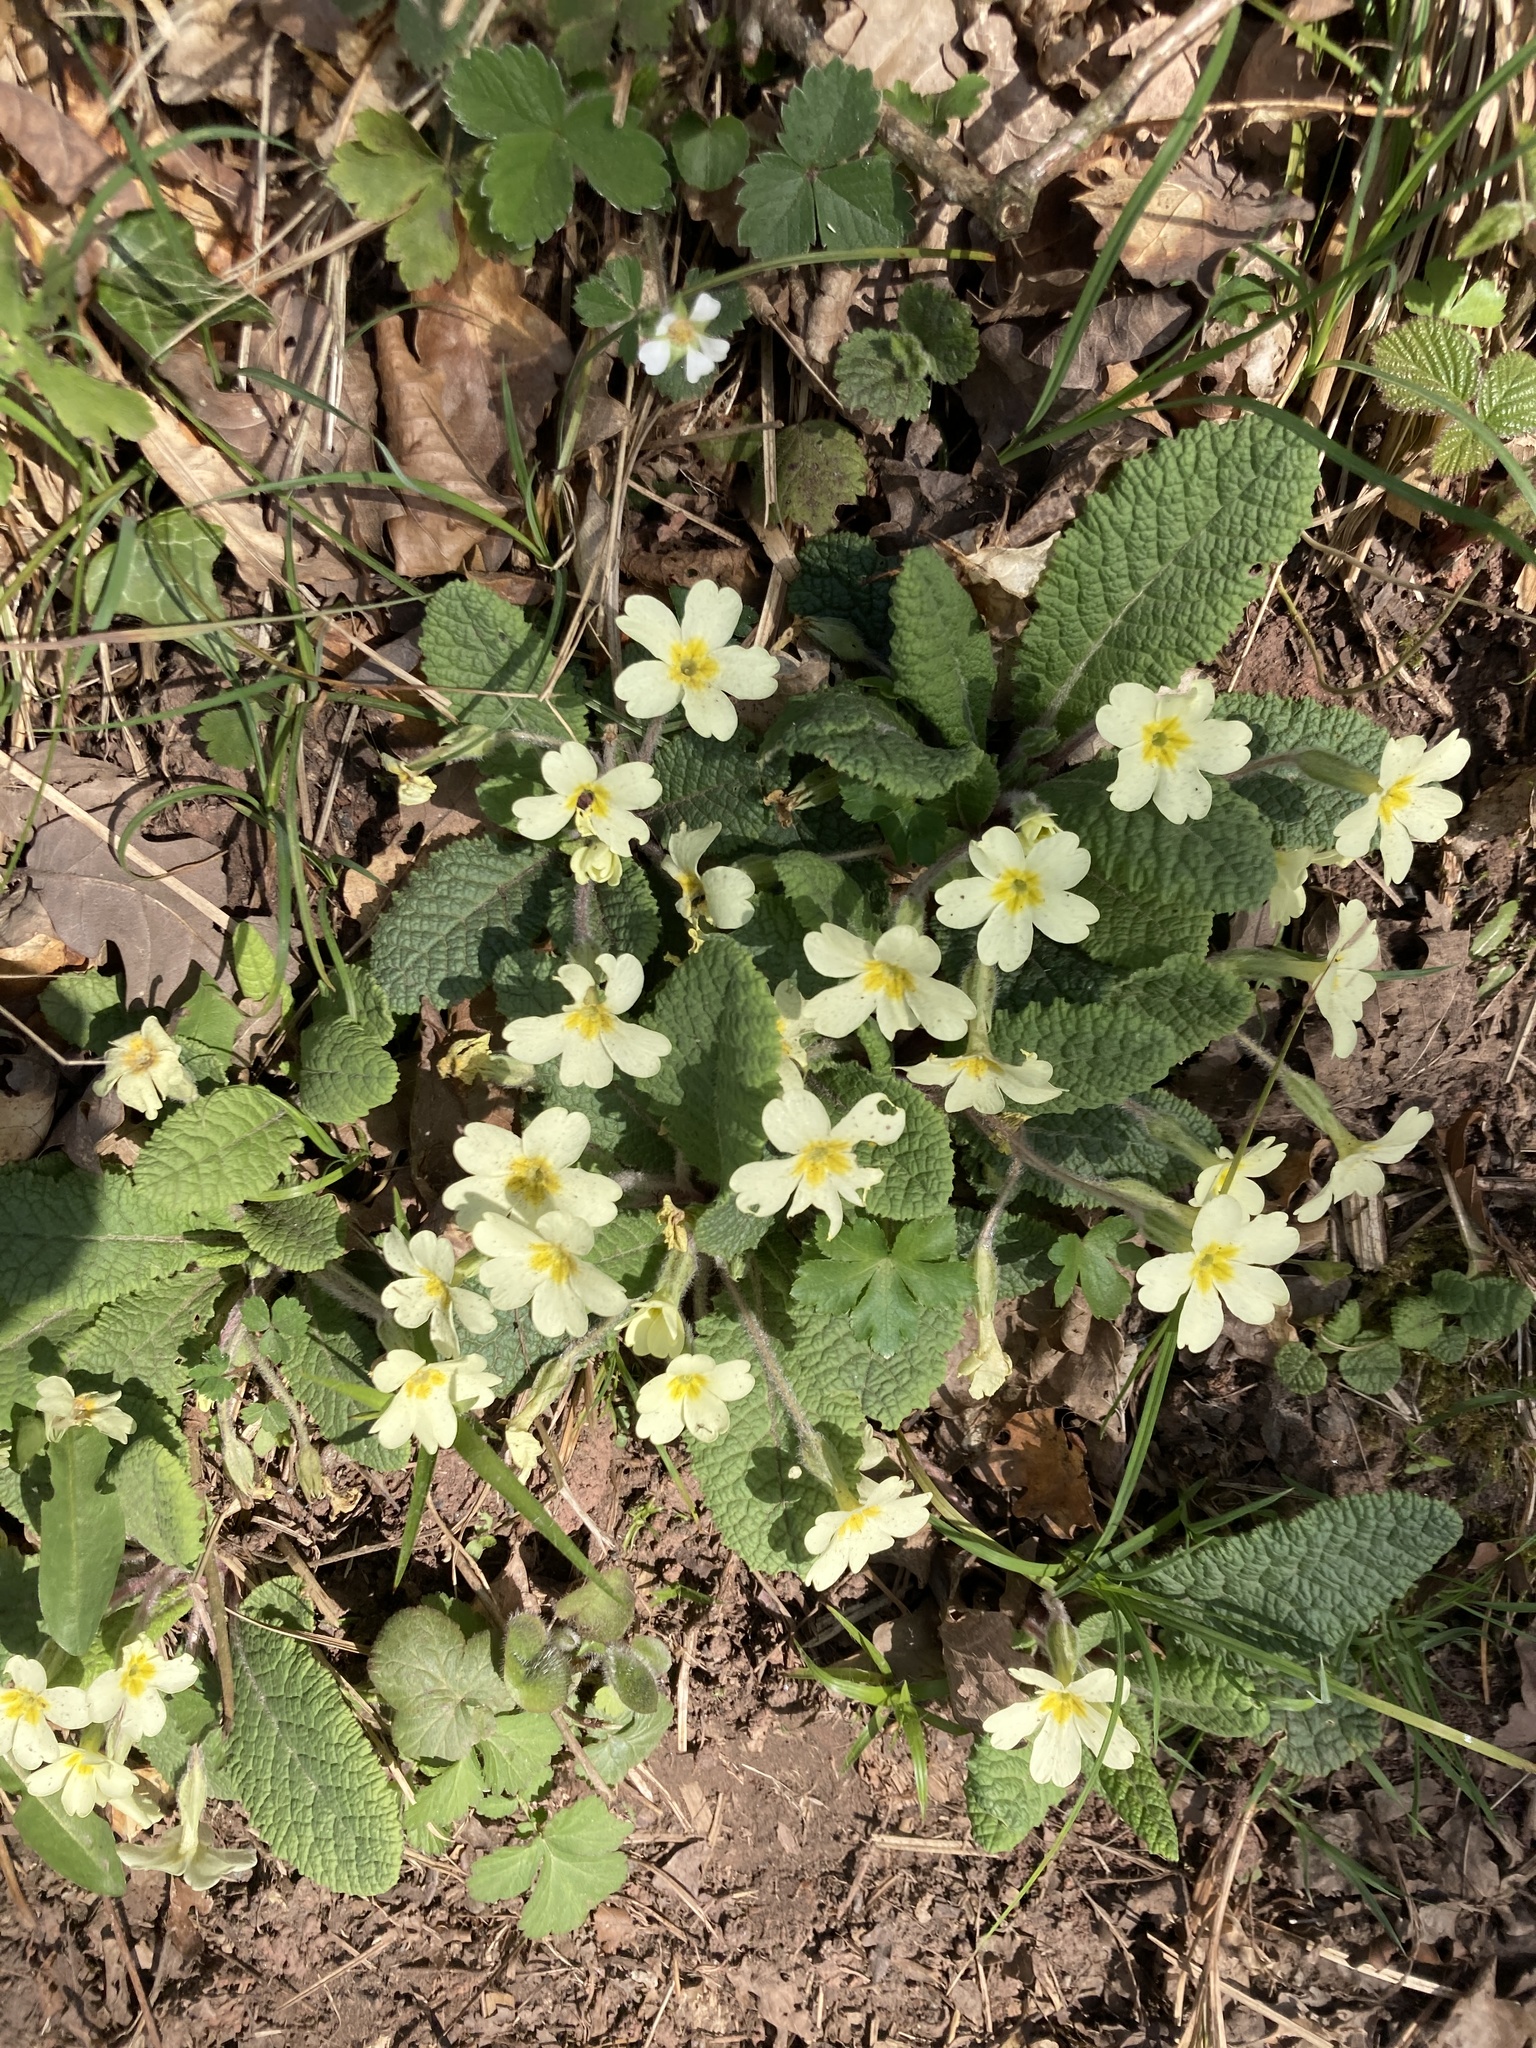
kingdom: Plantae
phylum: Tracheophyta
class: Magnoliopsida
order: Ericales
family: Primulaceae
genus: Primula
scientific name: Primula vulgaris
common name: Primrose
